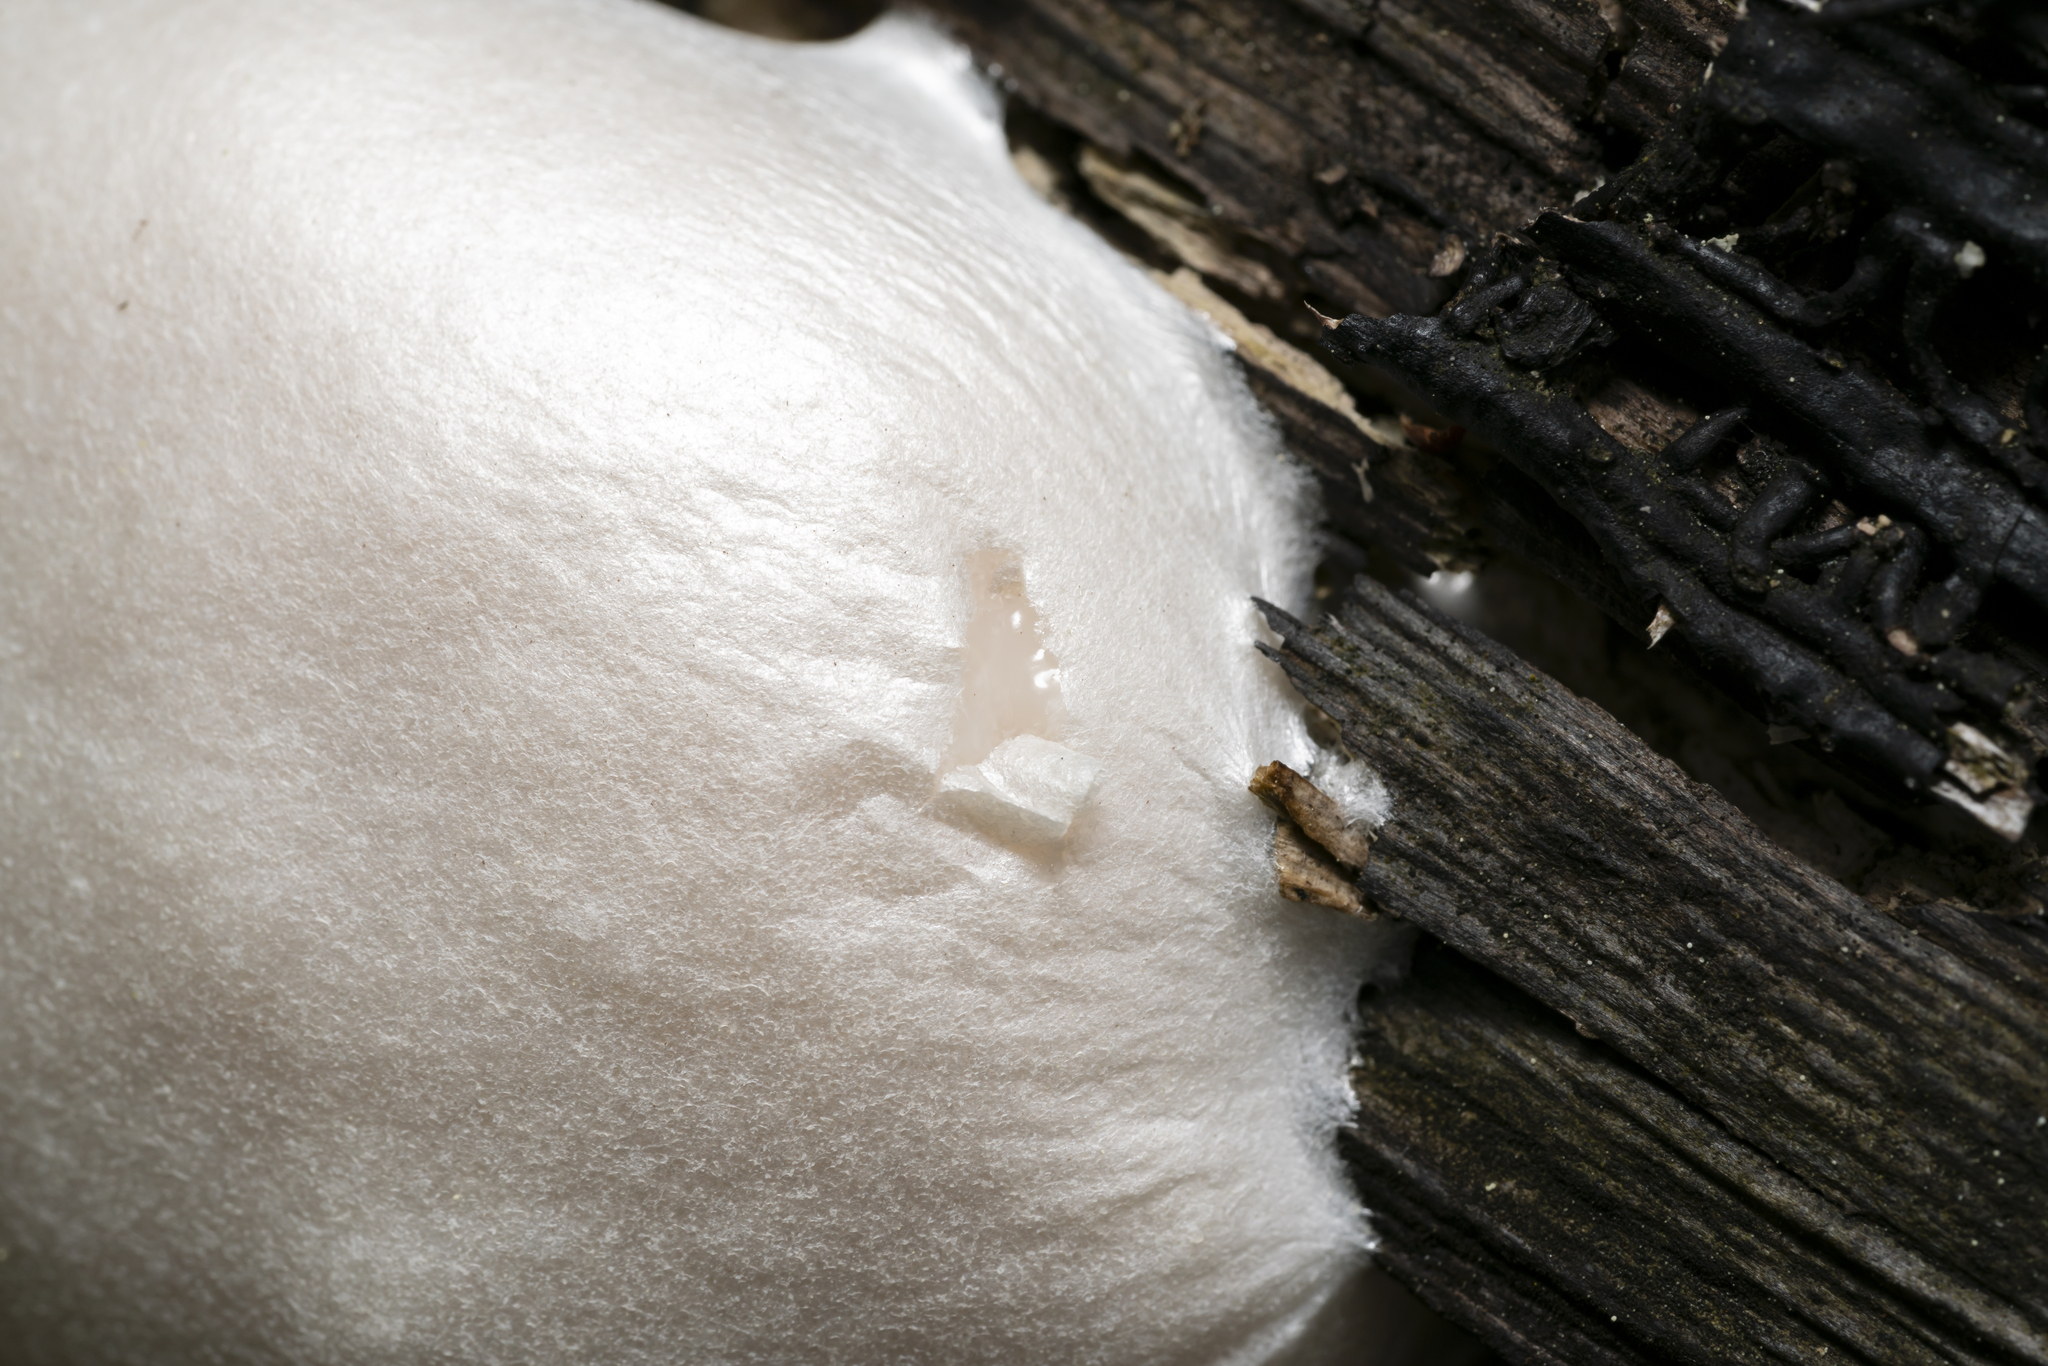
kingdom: Protozoa
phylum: Mycetozoa
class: Myxomycetes
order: Cribrariales
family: Tubiferaceae
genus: Reticularia
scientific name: Reticularia lycoperdon
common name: False puffball
